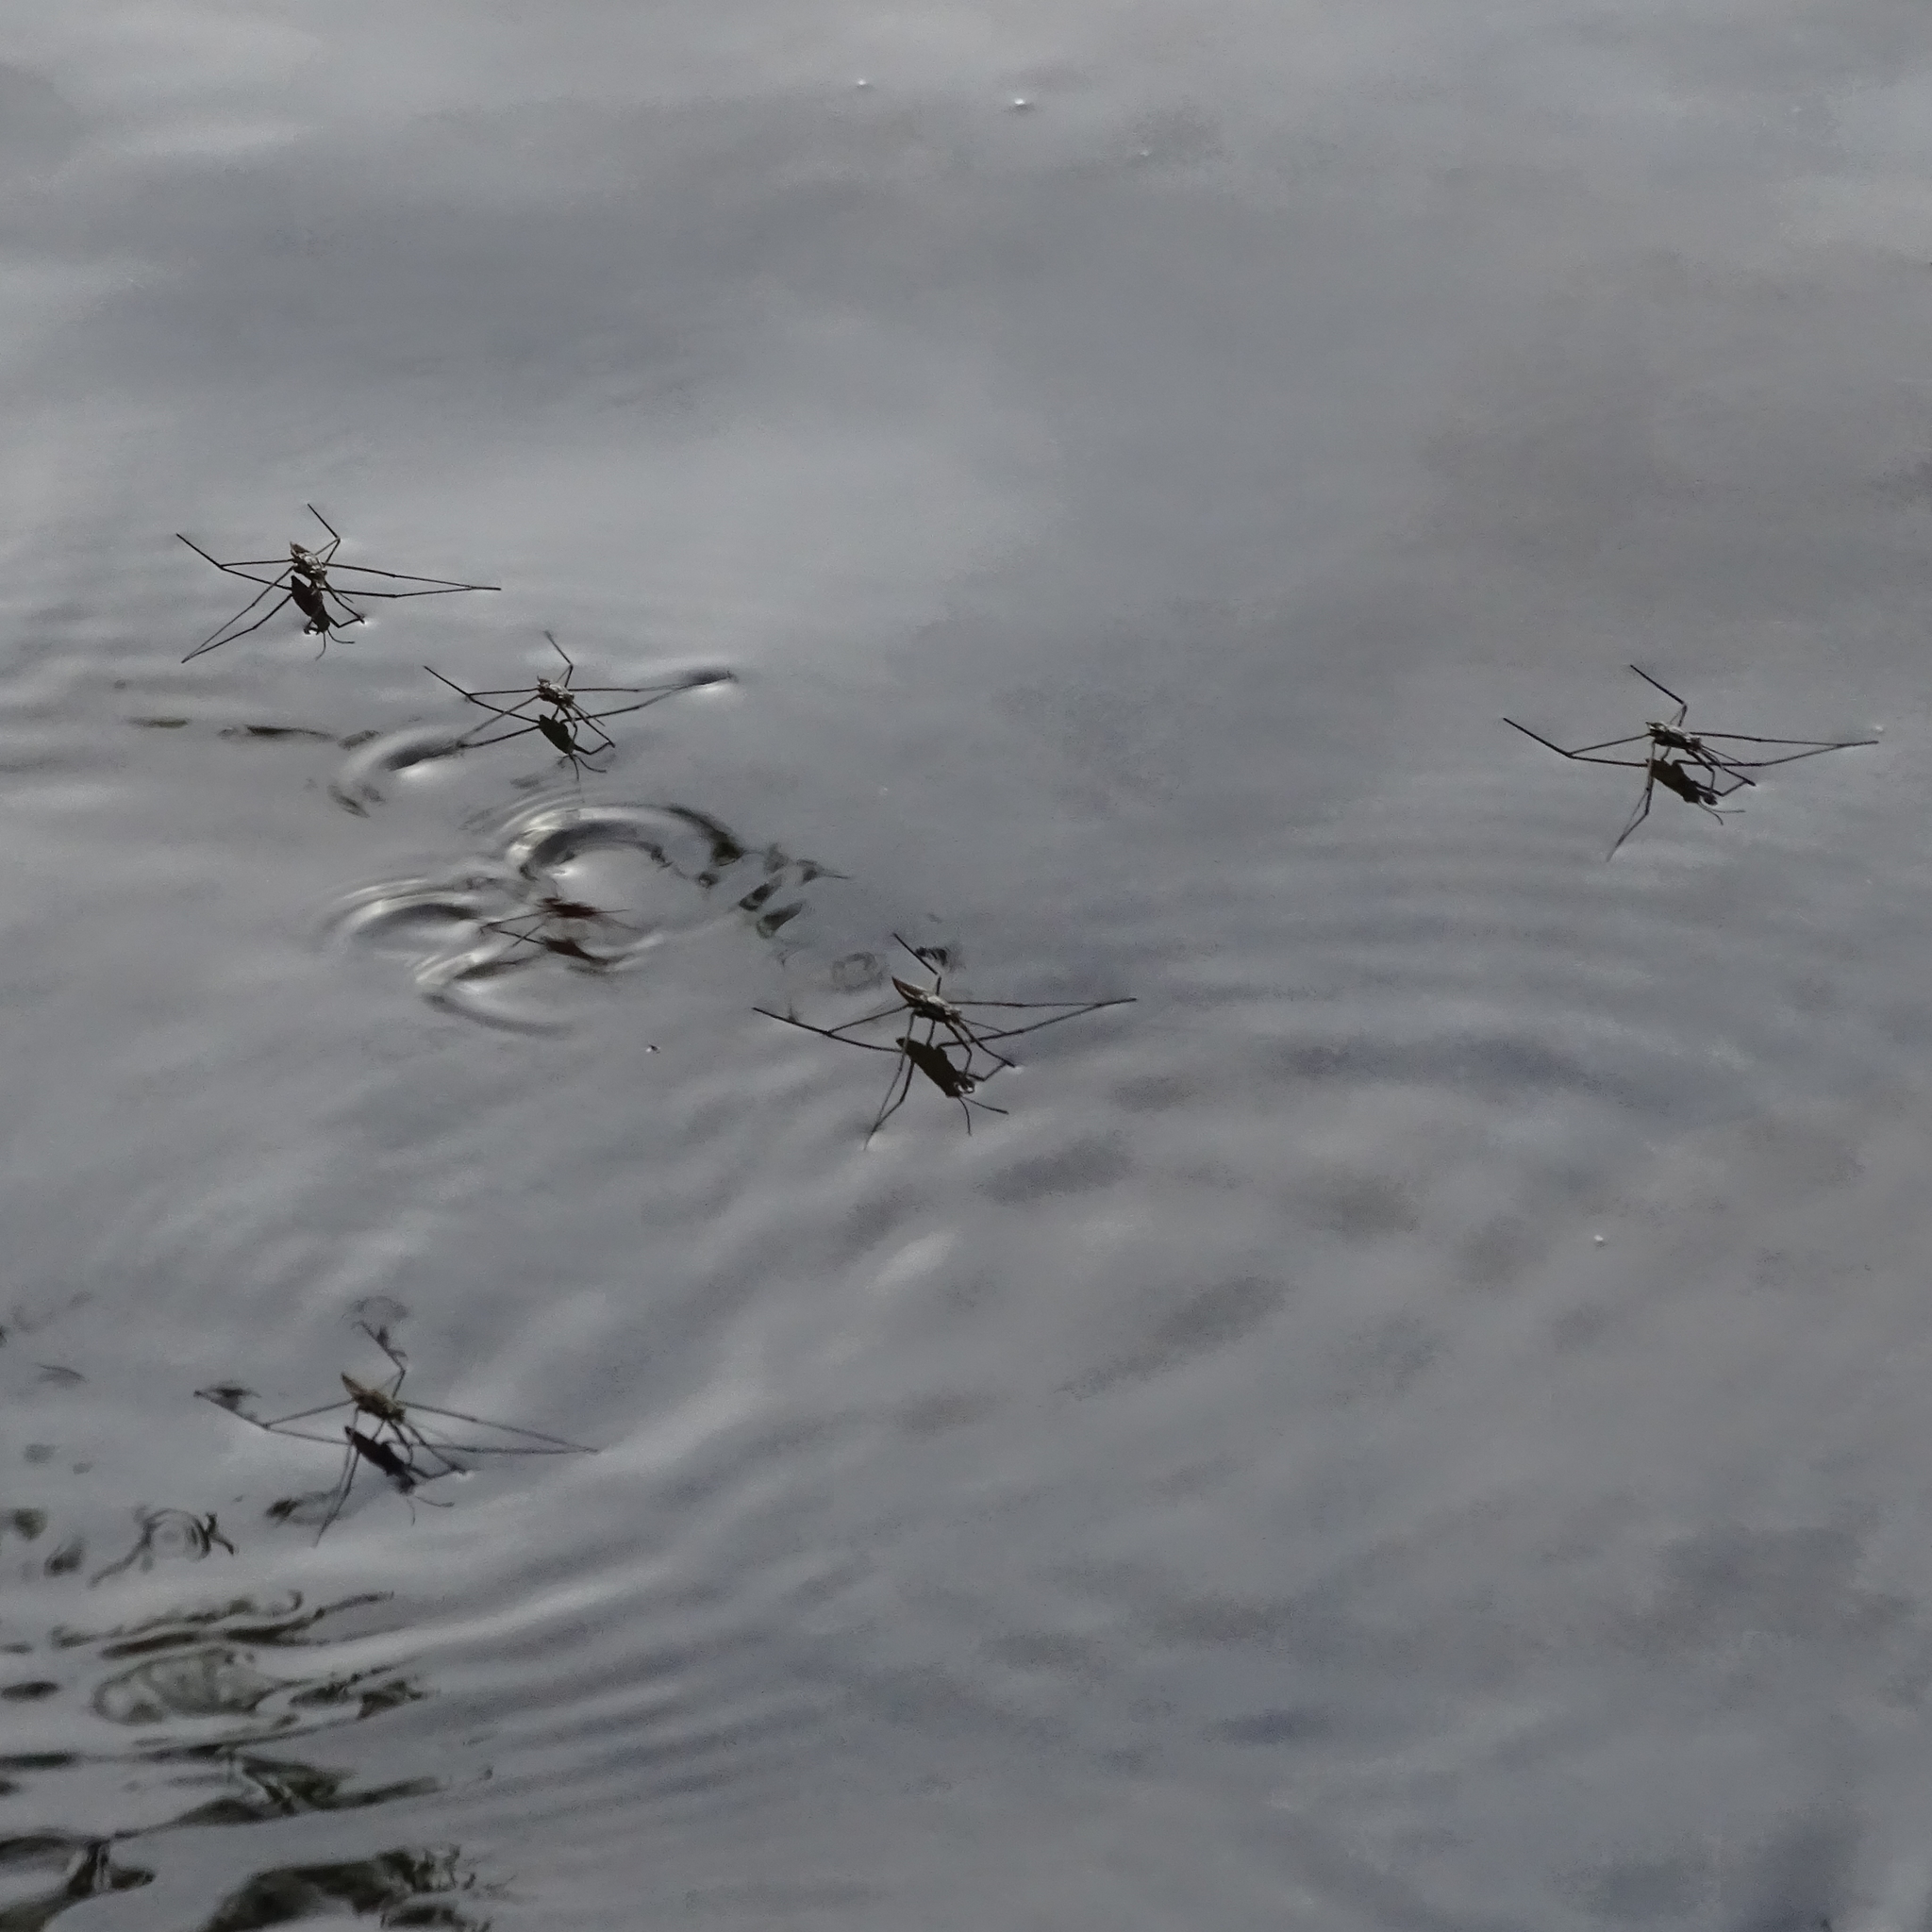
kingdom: Animalia
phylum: Arthropoda
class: Insecta
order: Hemiptera
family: Gerridae
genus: Aquarius
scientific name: Aquarius chilensis
